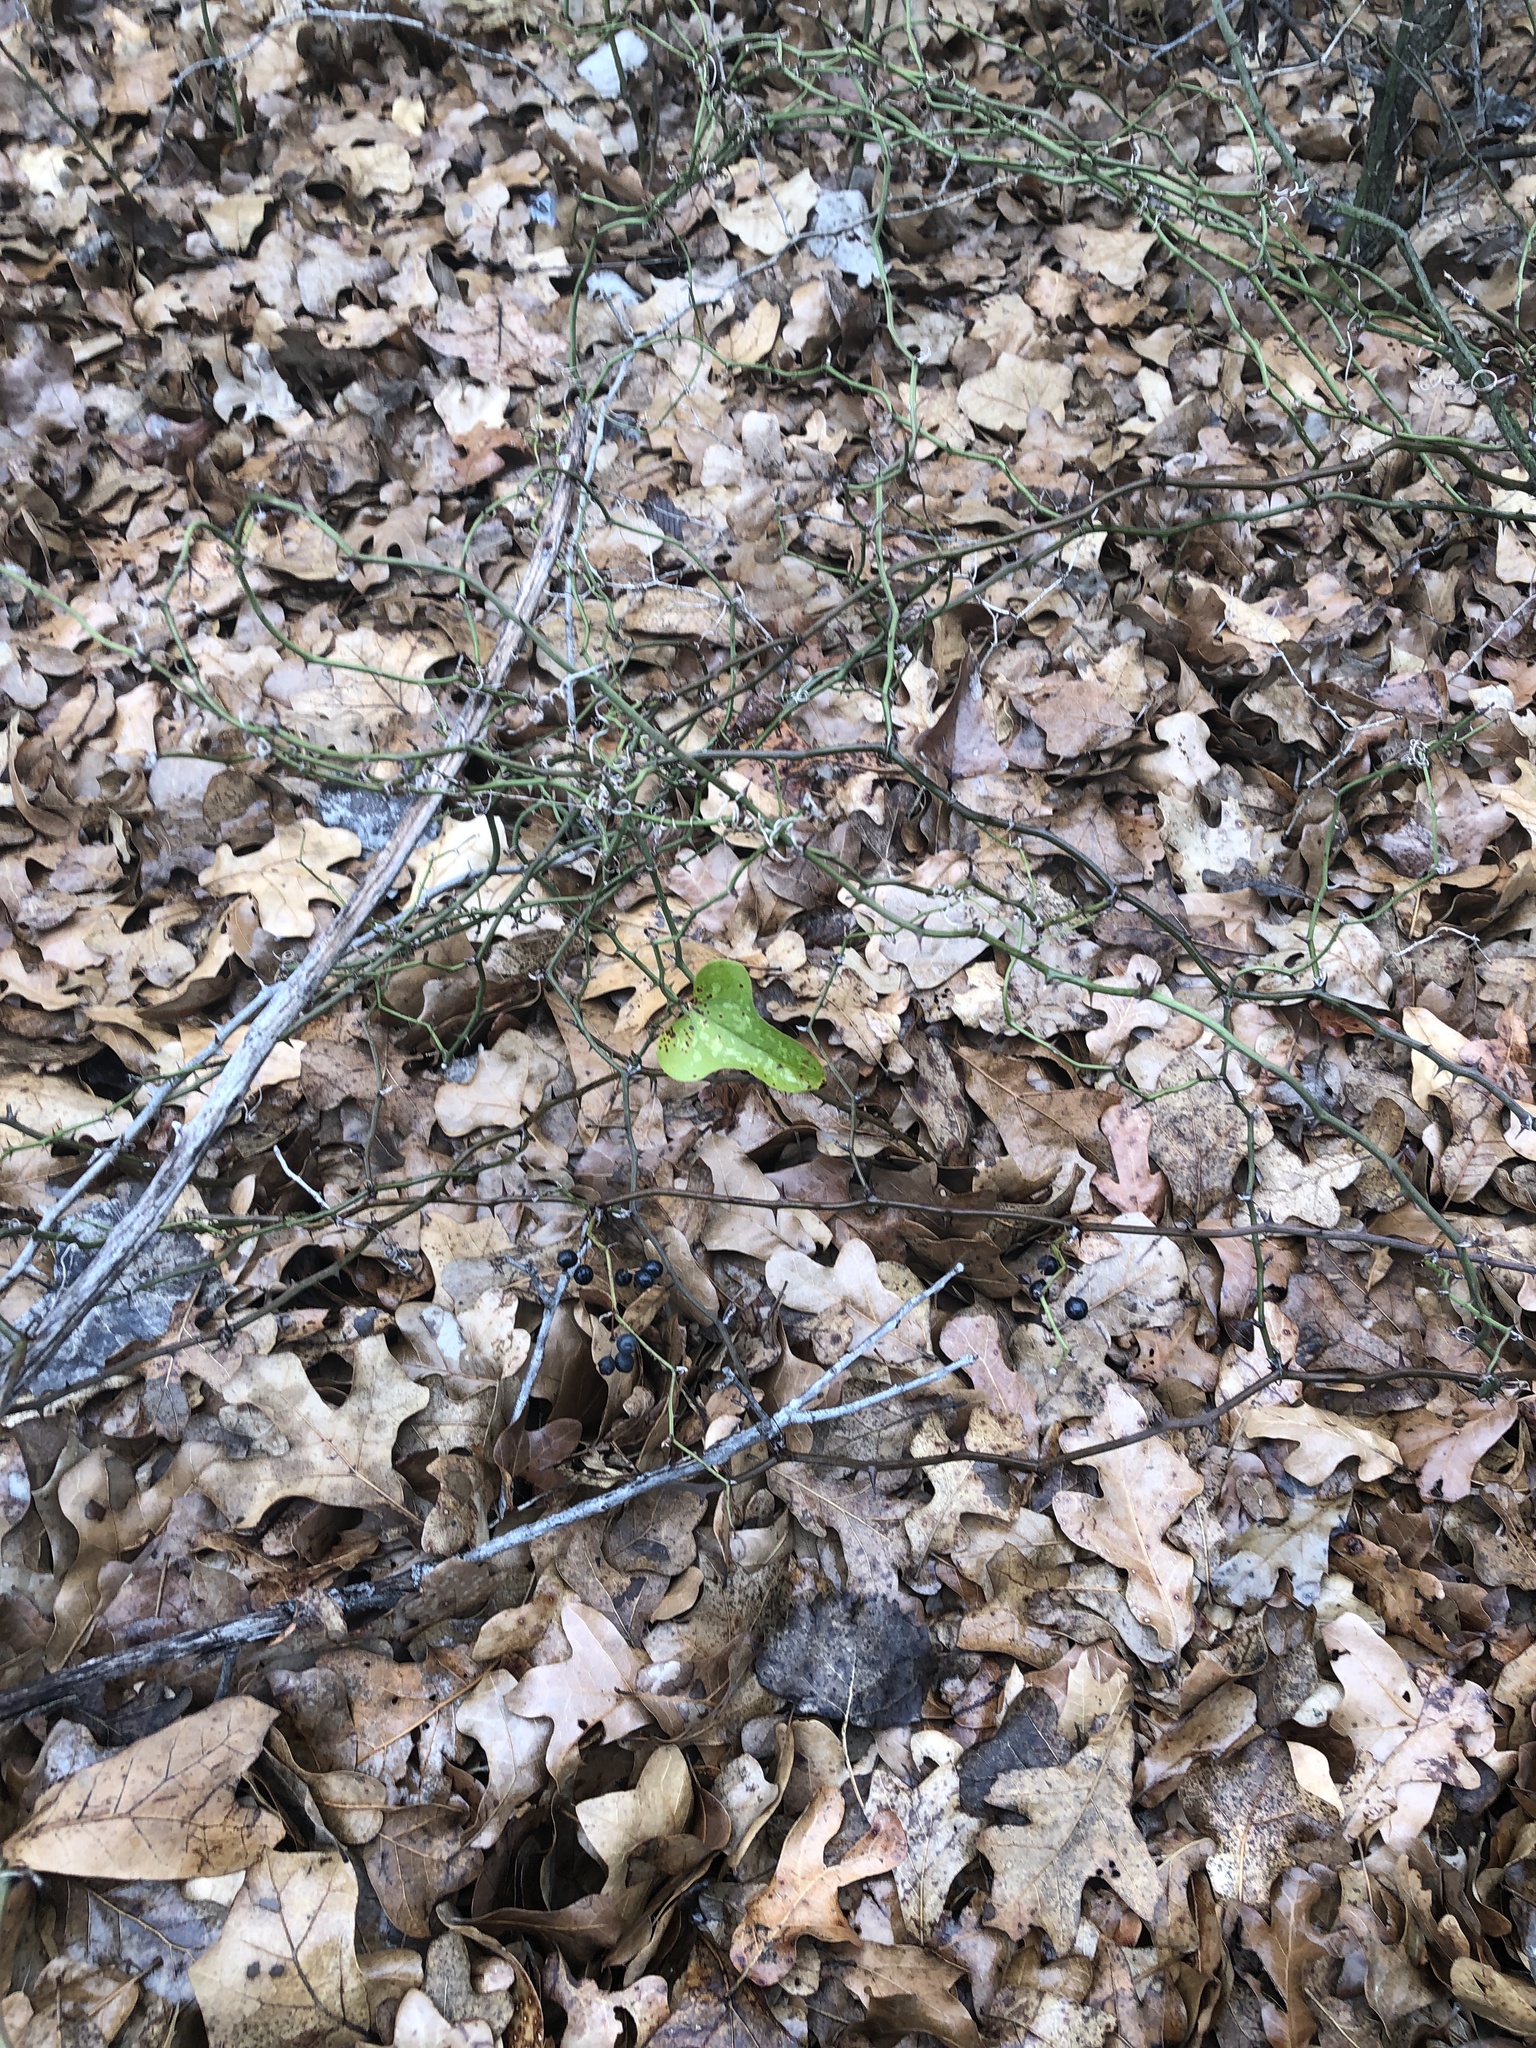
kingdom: Plantae
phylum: Tracheophyta
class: Liliopsida
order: Liliales
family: Smilacaceae
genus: Smilax
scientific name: Smilax bona-nox
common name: Catbrier
